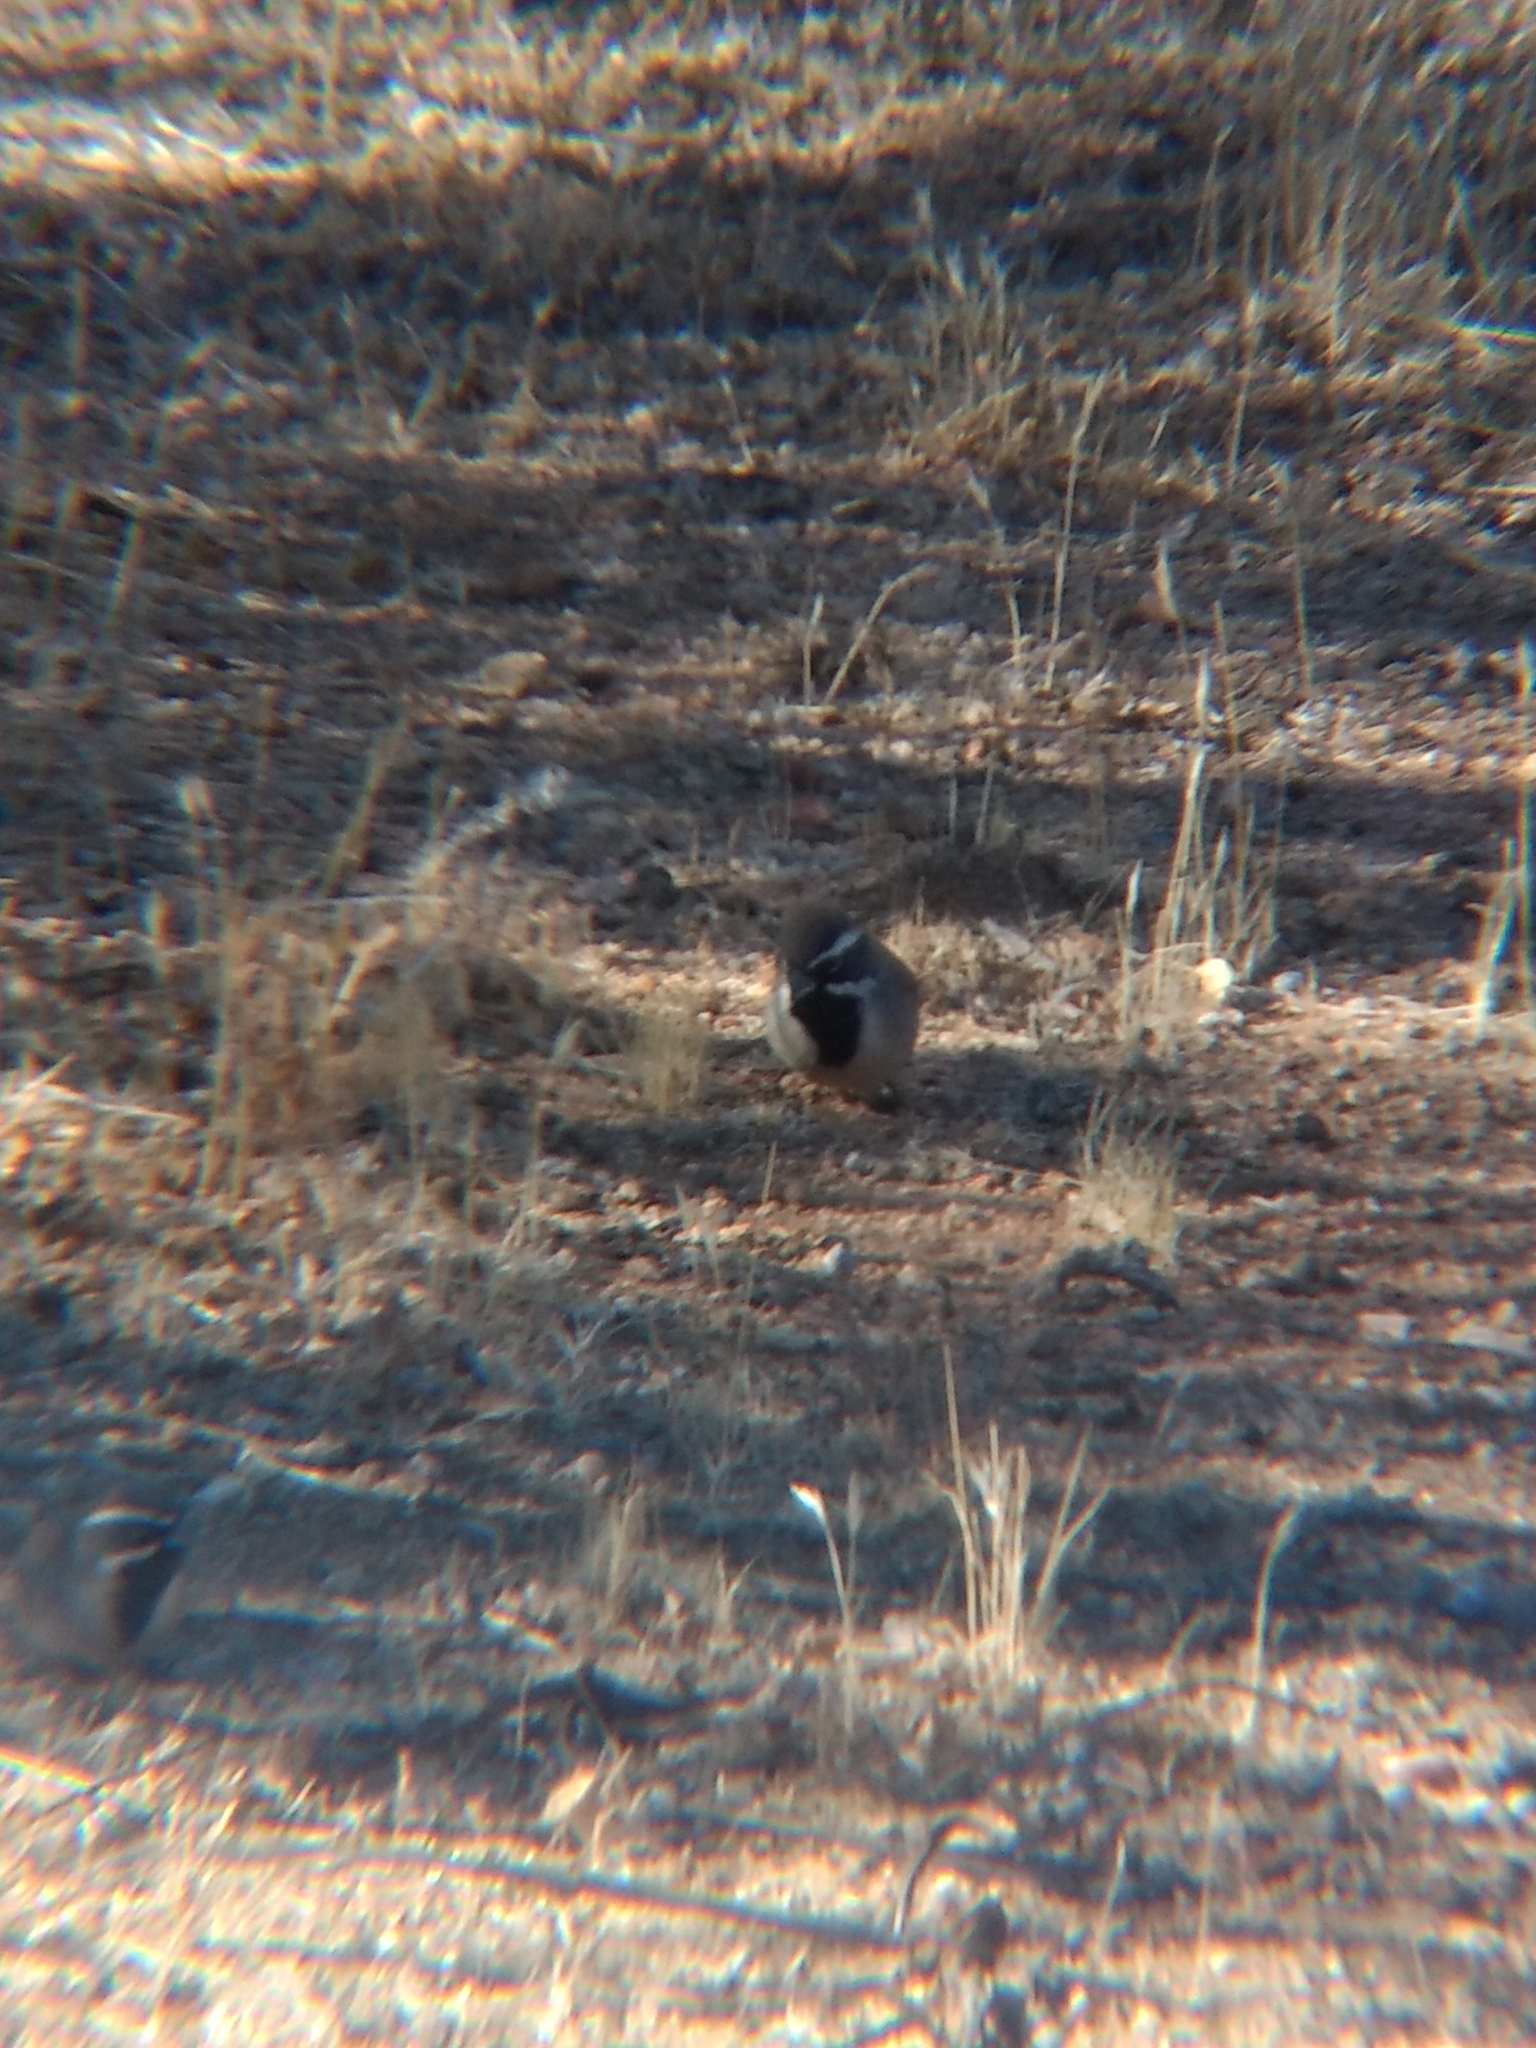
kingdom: Animalia
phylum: Chordata
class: Aves
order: Passeriformes
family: Passerellidae
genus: Amphispiza
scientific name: Amphispiza bilineata
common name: Black-throated sparrow
